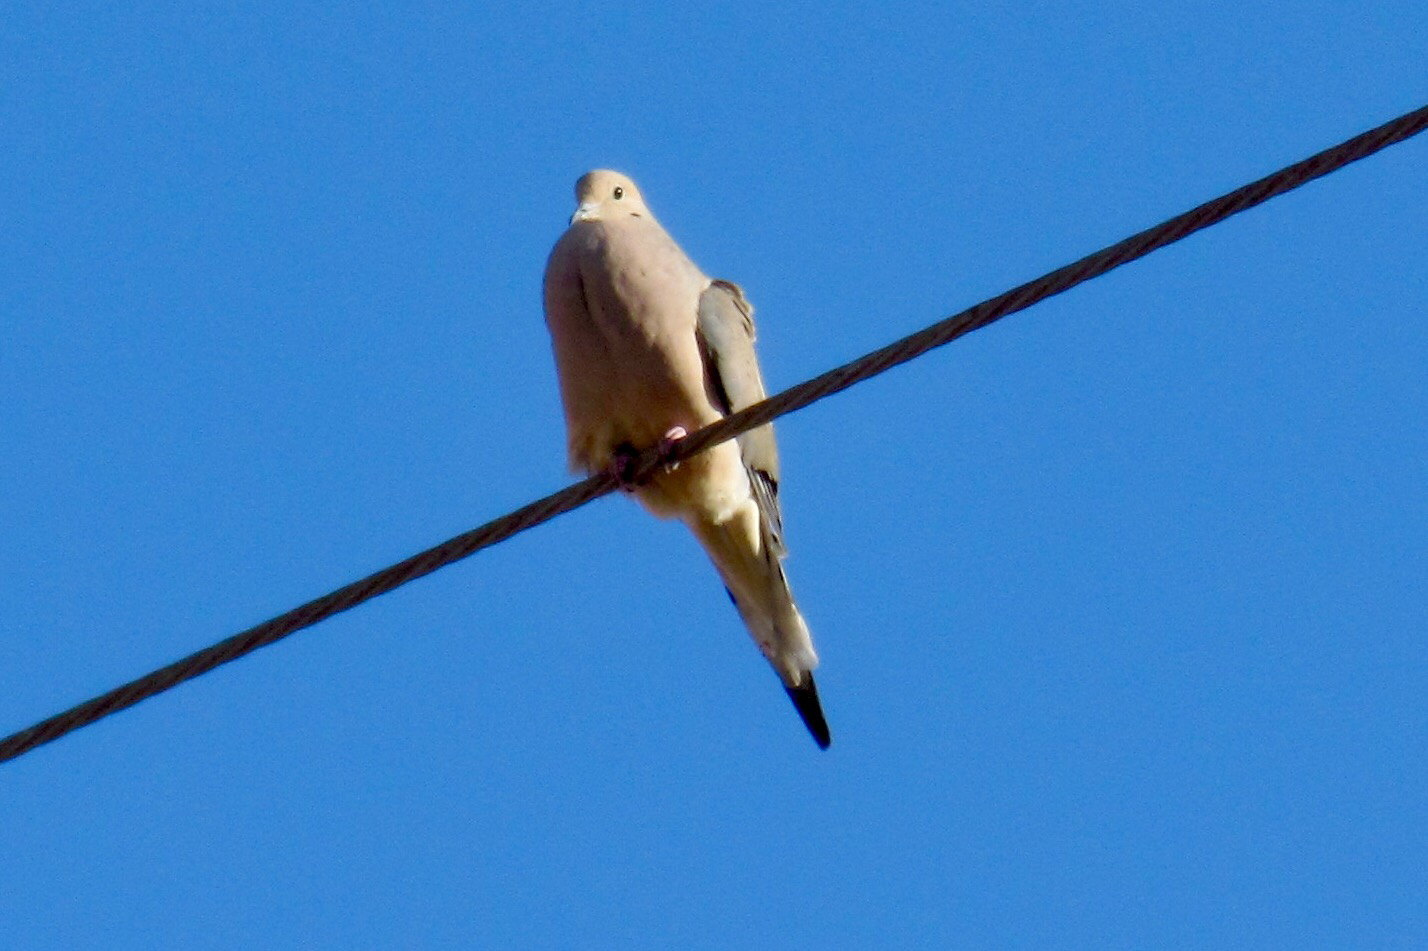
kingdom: Animalia
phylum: Chordata
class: Aves
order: Columbiformes
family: Columbidae
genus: Zenaida
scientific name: Zenaida macroura
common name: Mourning dove
